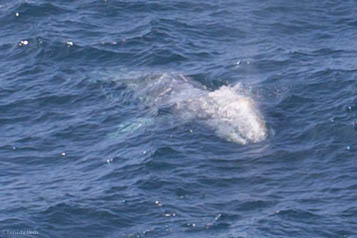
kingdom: Animalia
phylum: Chordata
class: Mammalia
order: Cetacea
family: Eschrichtiidae
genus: Eschrichtius
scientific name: Eschrichtius robustus
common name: Gray whale
